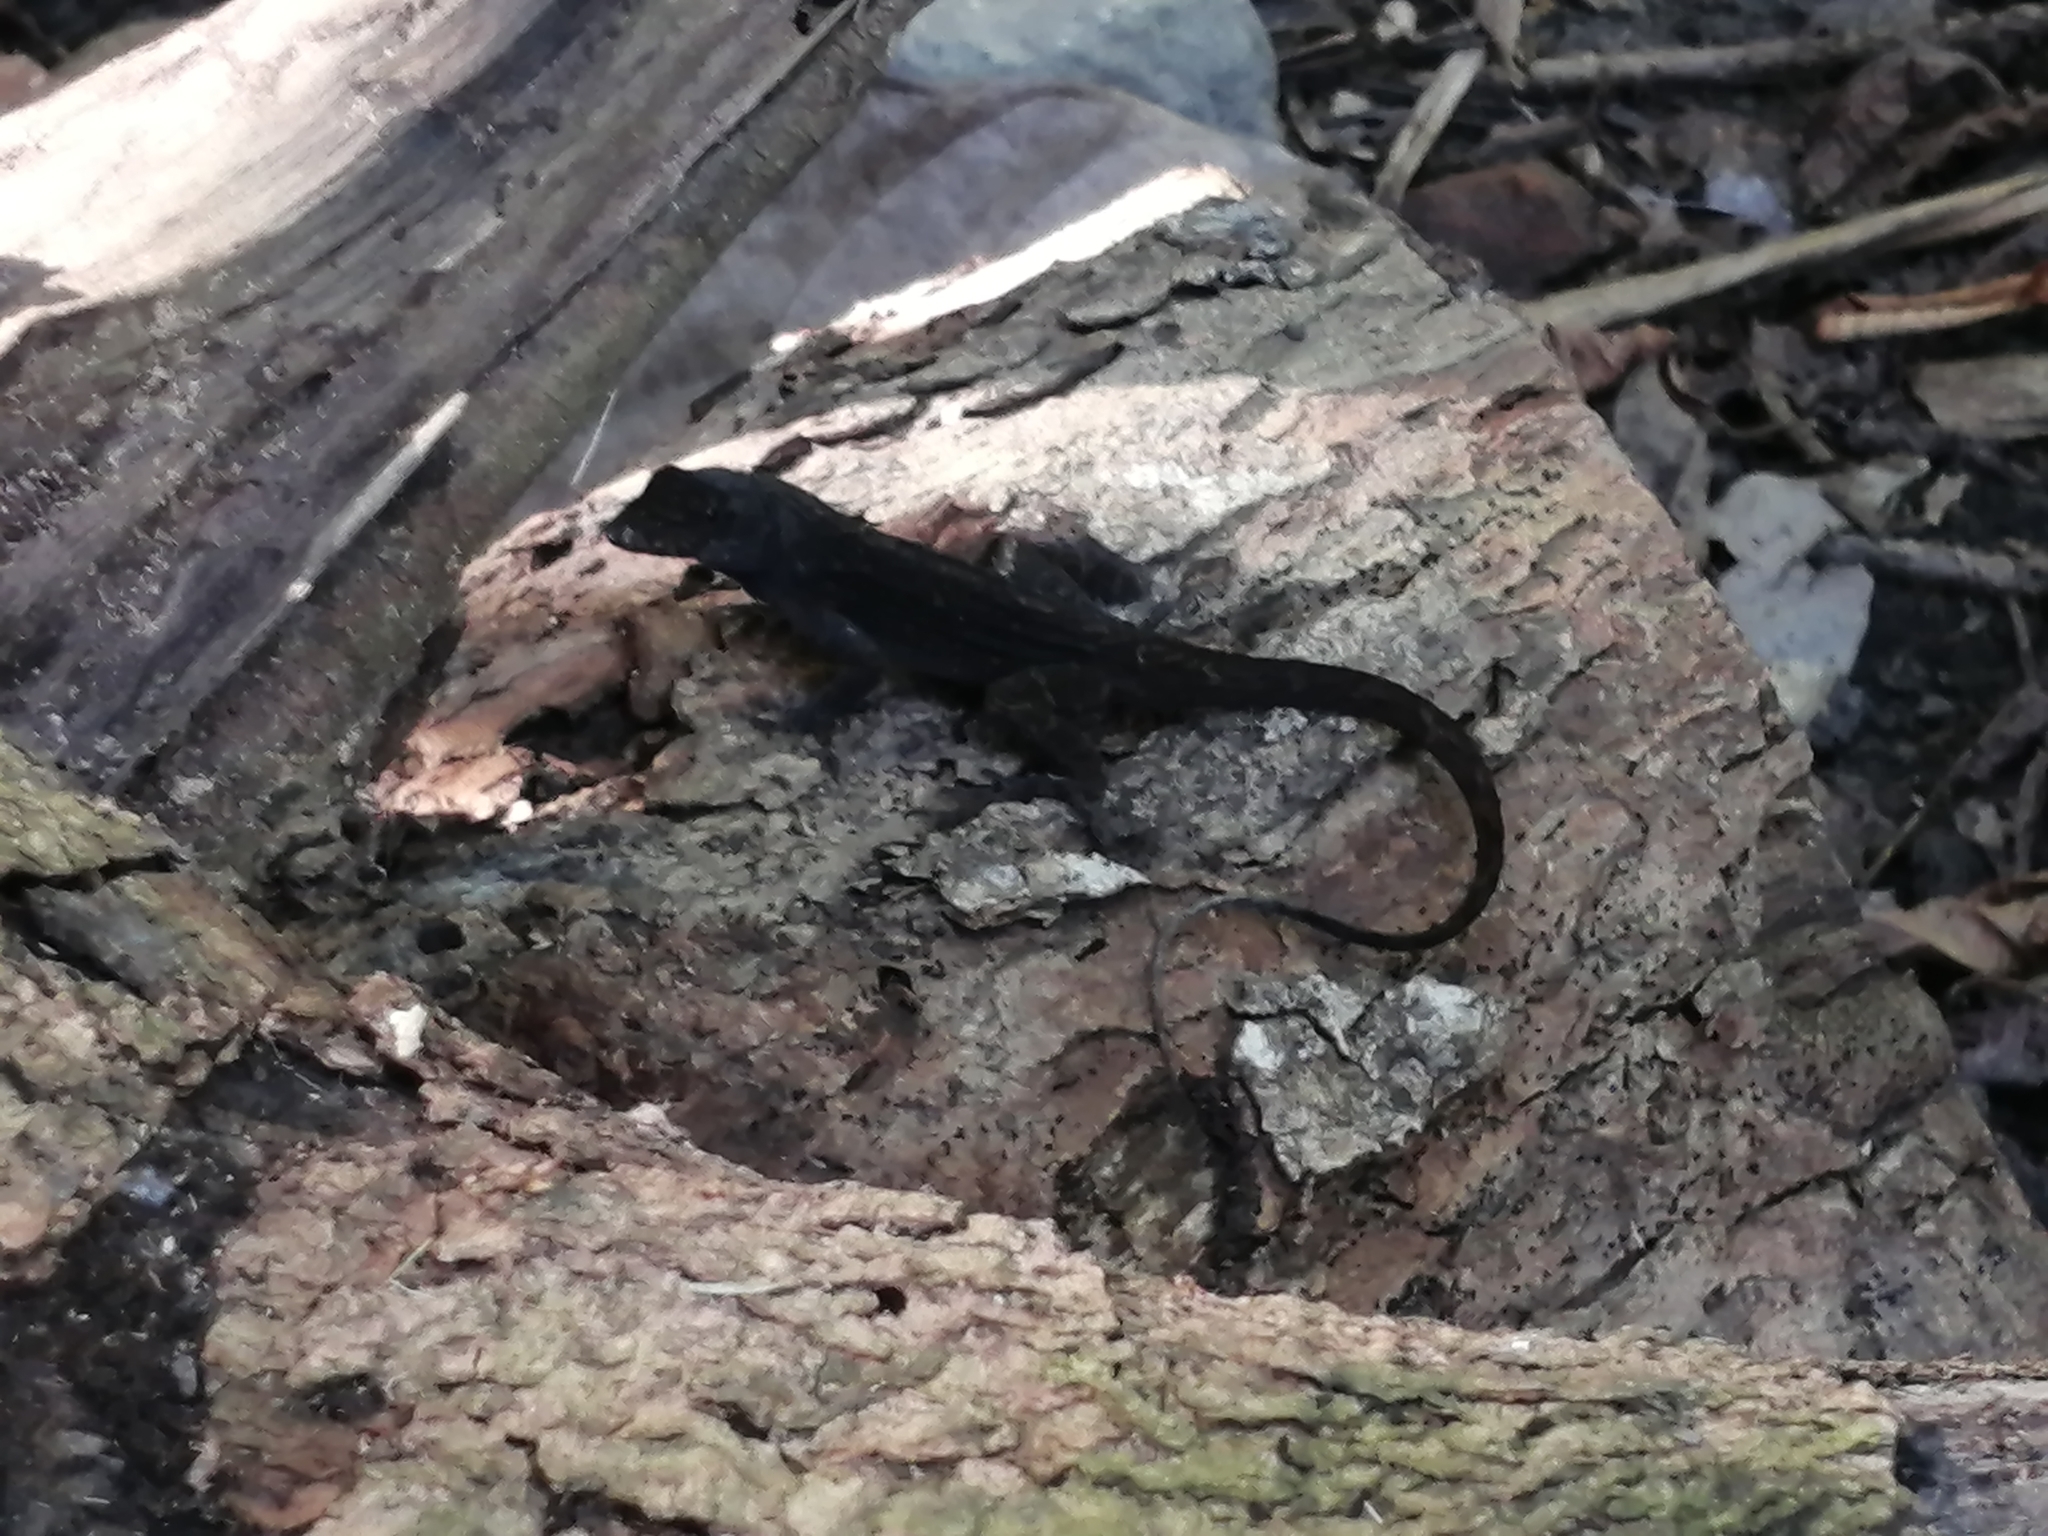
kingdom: Animalia
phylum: Chordata
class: Squamata
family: Dactyloidae
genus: Anolis
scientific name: Anolis sagrei
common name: Brown anole
